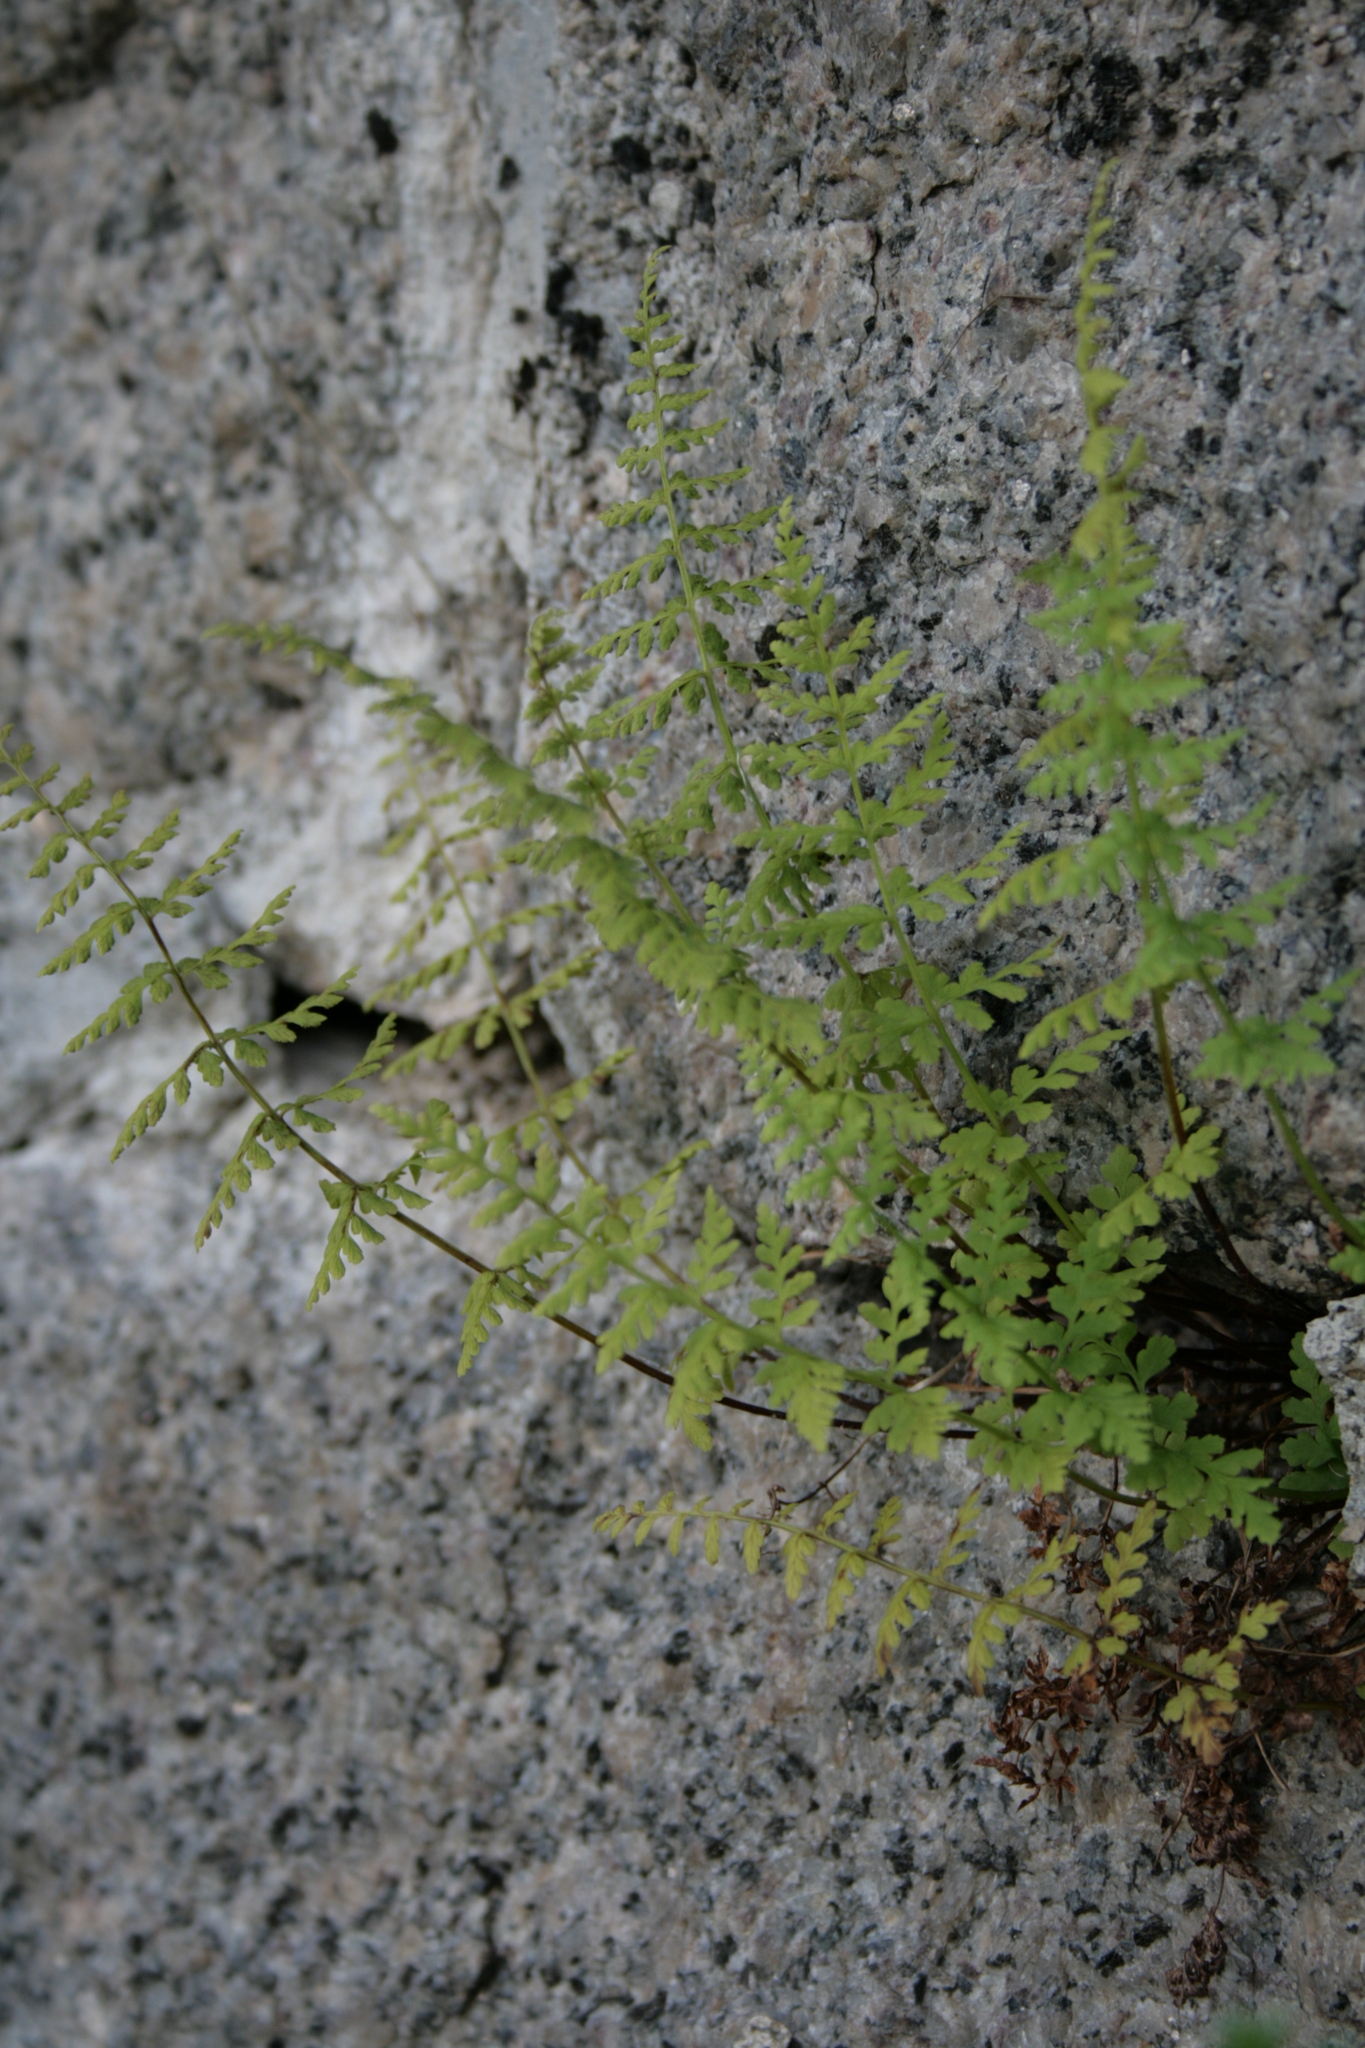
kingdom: Plantae
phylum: Tracheophyta
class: Polypodiopsida
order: Polypodiales
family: Cystopteridaceae
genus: Cystopteris
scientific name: Cystopteris fragilis
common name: Brittle bladder fern
